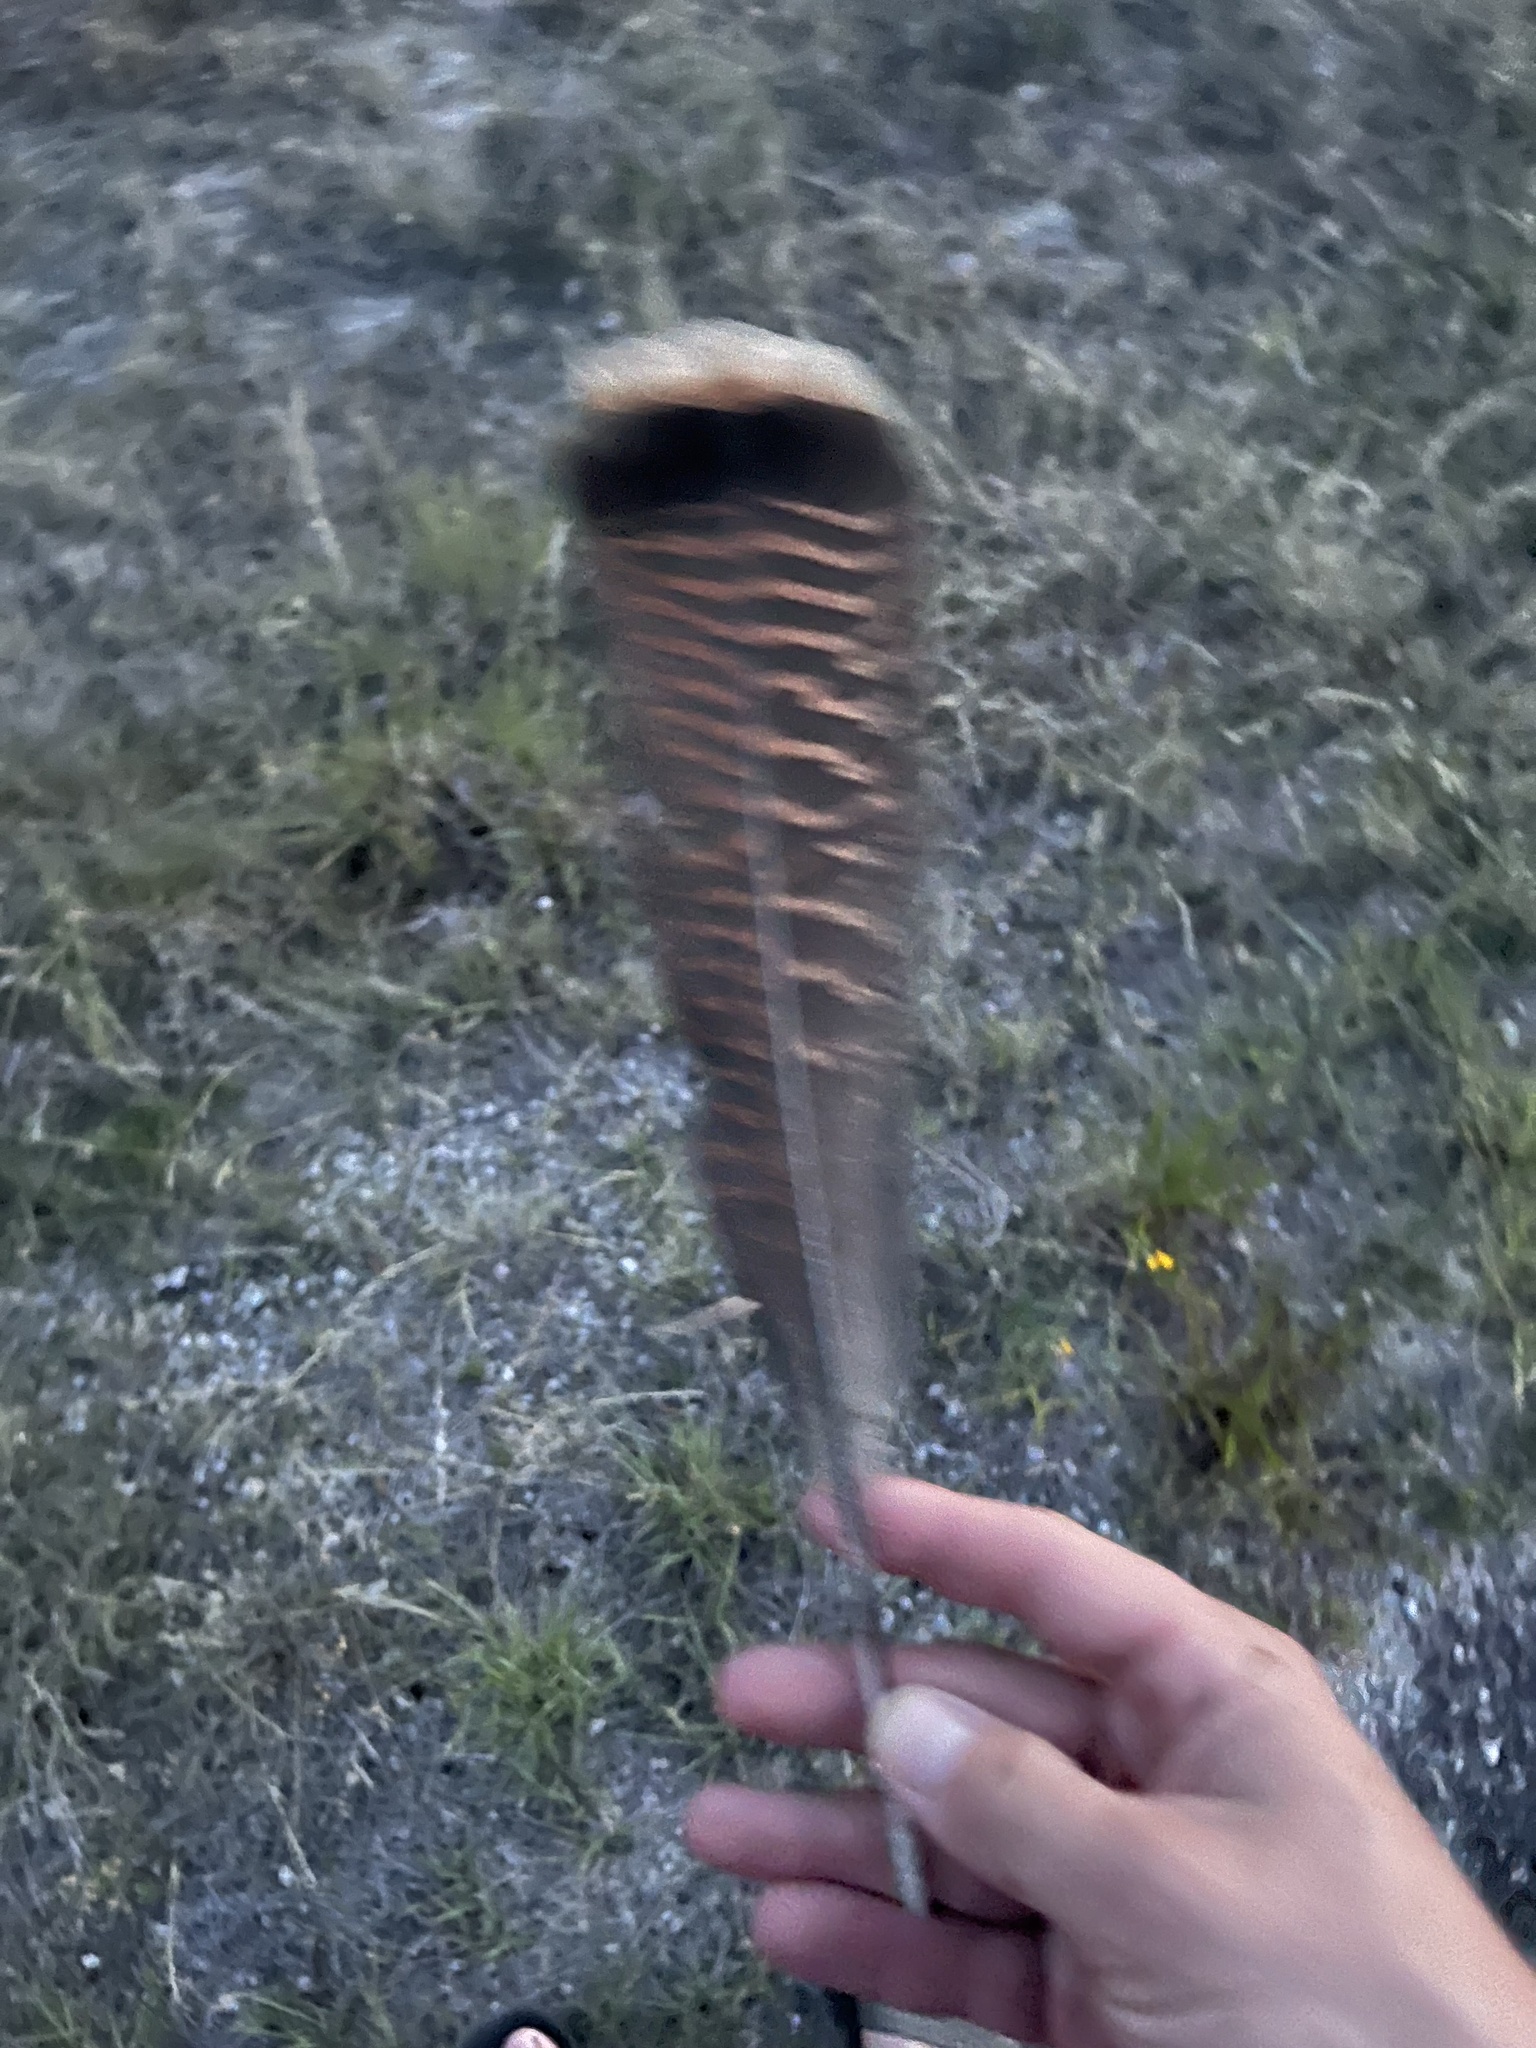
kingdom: Animalia
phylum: Chordata
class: Aves
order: Galliformes
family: Phasianidae
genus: Meleagris
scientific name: Meleagris gallopavo
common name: Wild turkey
